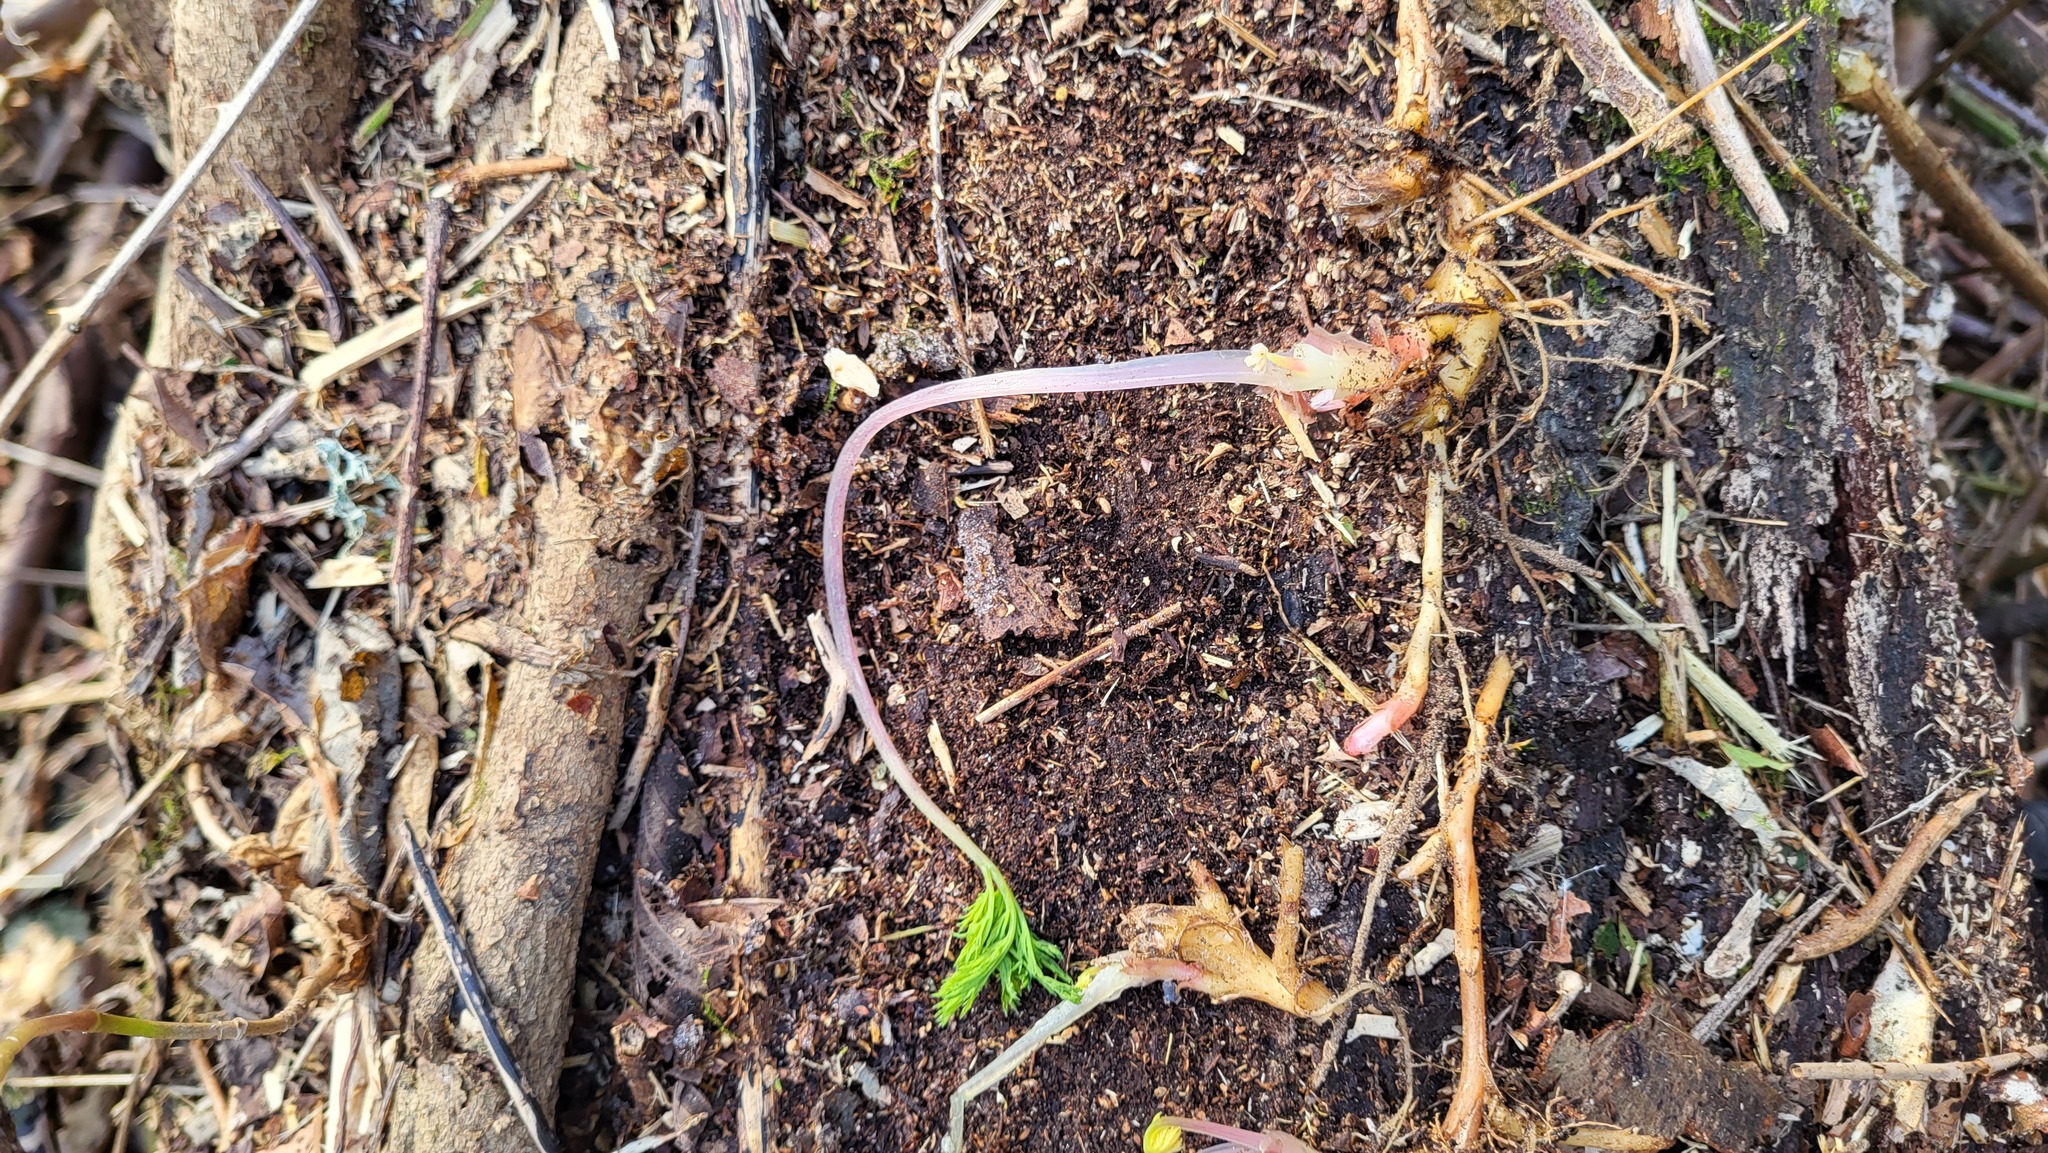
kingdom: Plantae
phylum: Tracheophyta
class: Magnoliopsida
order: Ranunculales
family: Papaveraceae
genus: Dicentra
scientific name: Dicentra formosa
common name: Bleeding-heart
